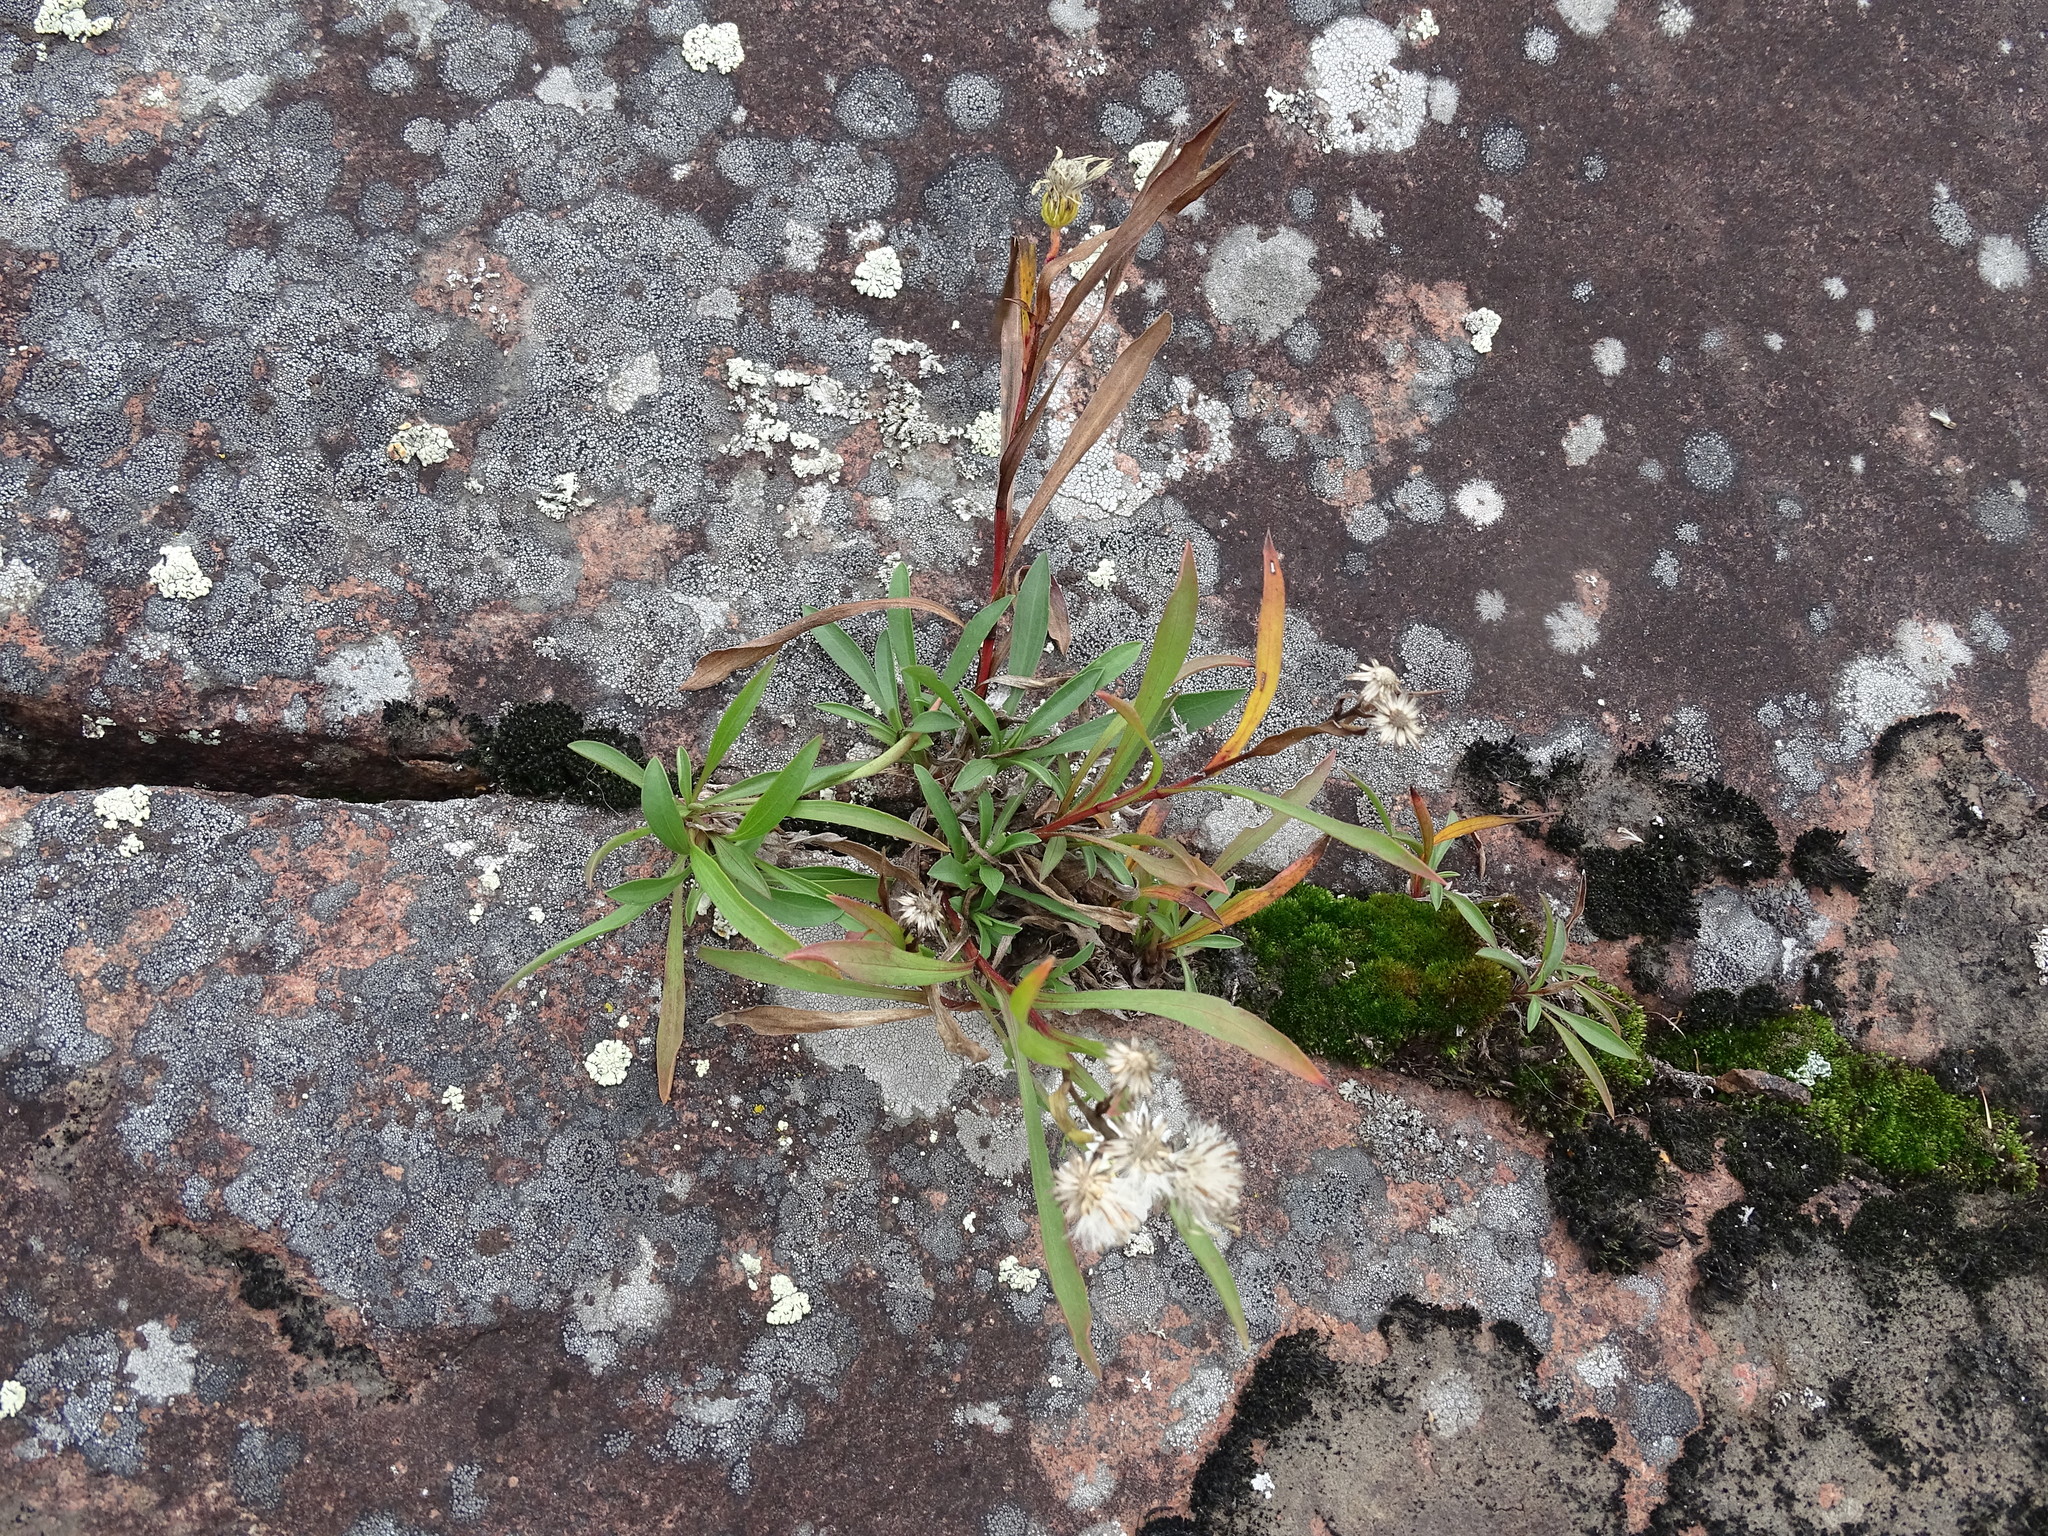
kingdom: Plantae
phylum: Tracheophyta
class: Magnoliopsida
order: Asterales
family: Asteraceae
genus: Solidago
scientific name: Solidago ptarmicoides
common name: White flat-top goldenrod
